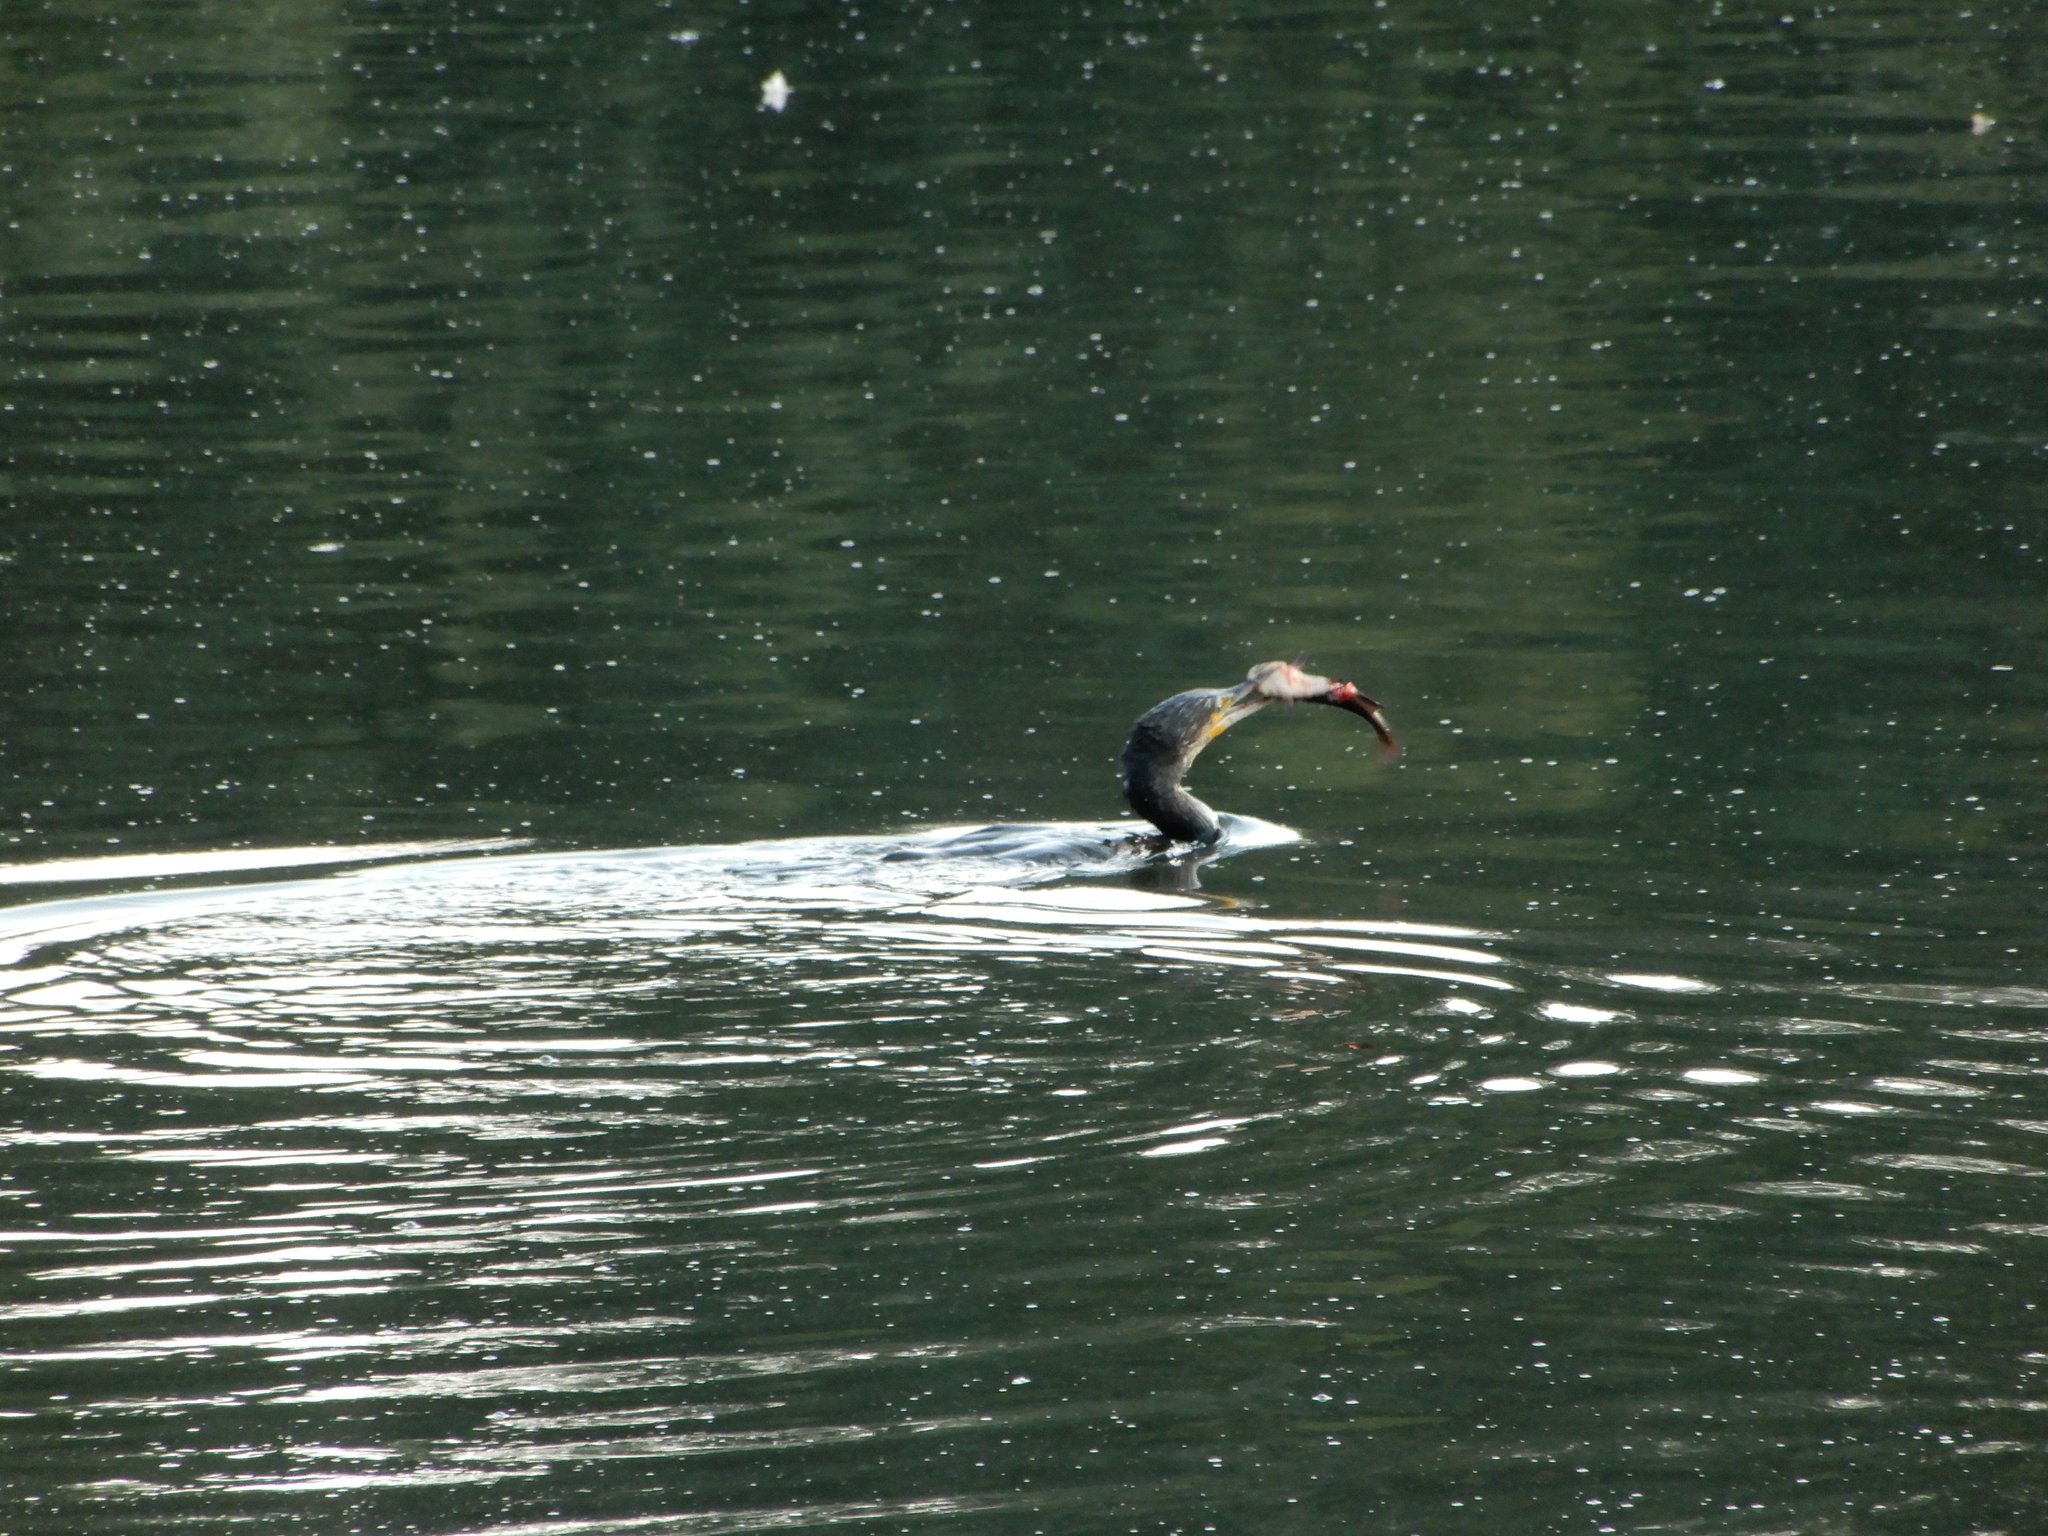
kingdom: Animalia
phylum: Chordata
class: Aves
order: Suliformes
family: Phalacrocoracidae
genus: Phalacrocorax
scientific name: Phalacrocorax carbo
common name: Great cormorant
